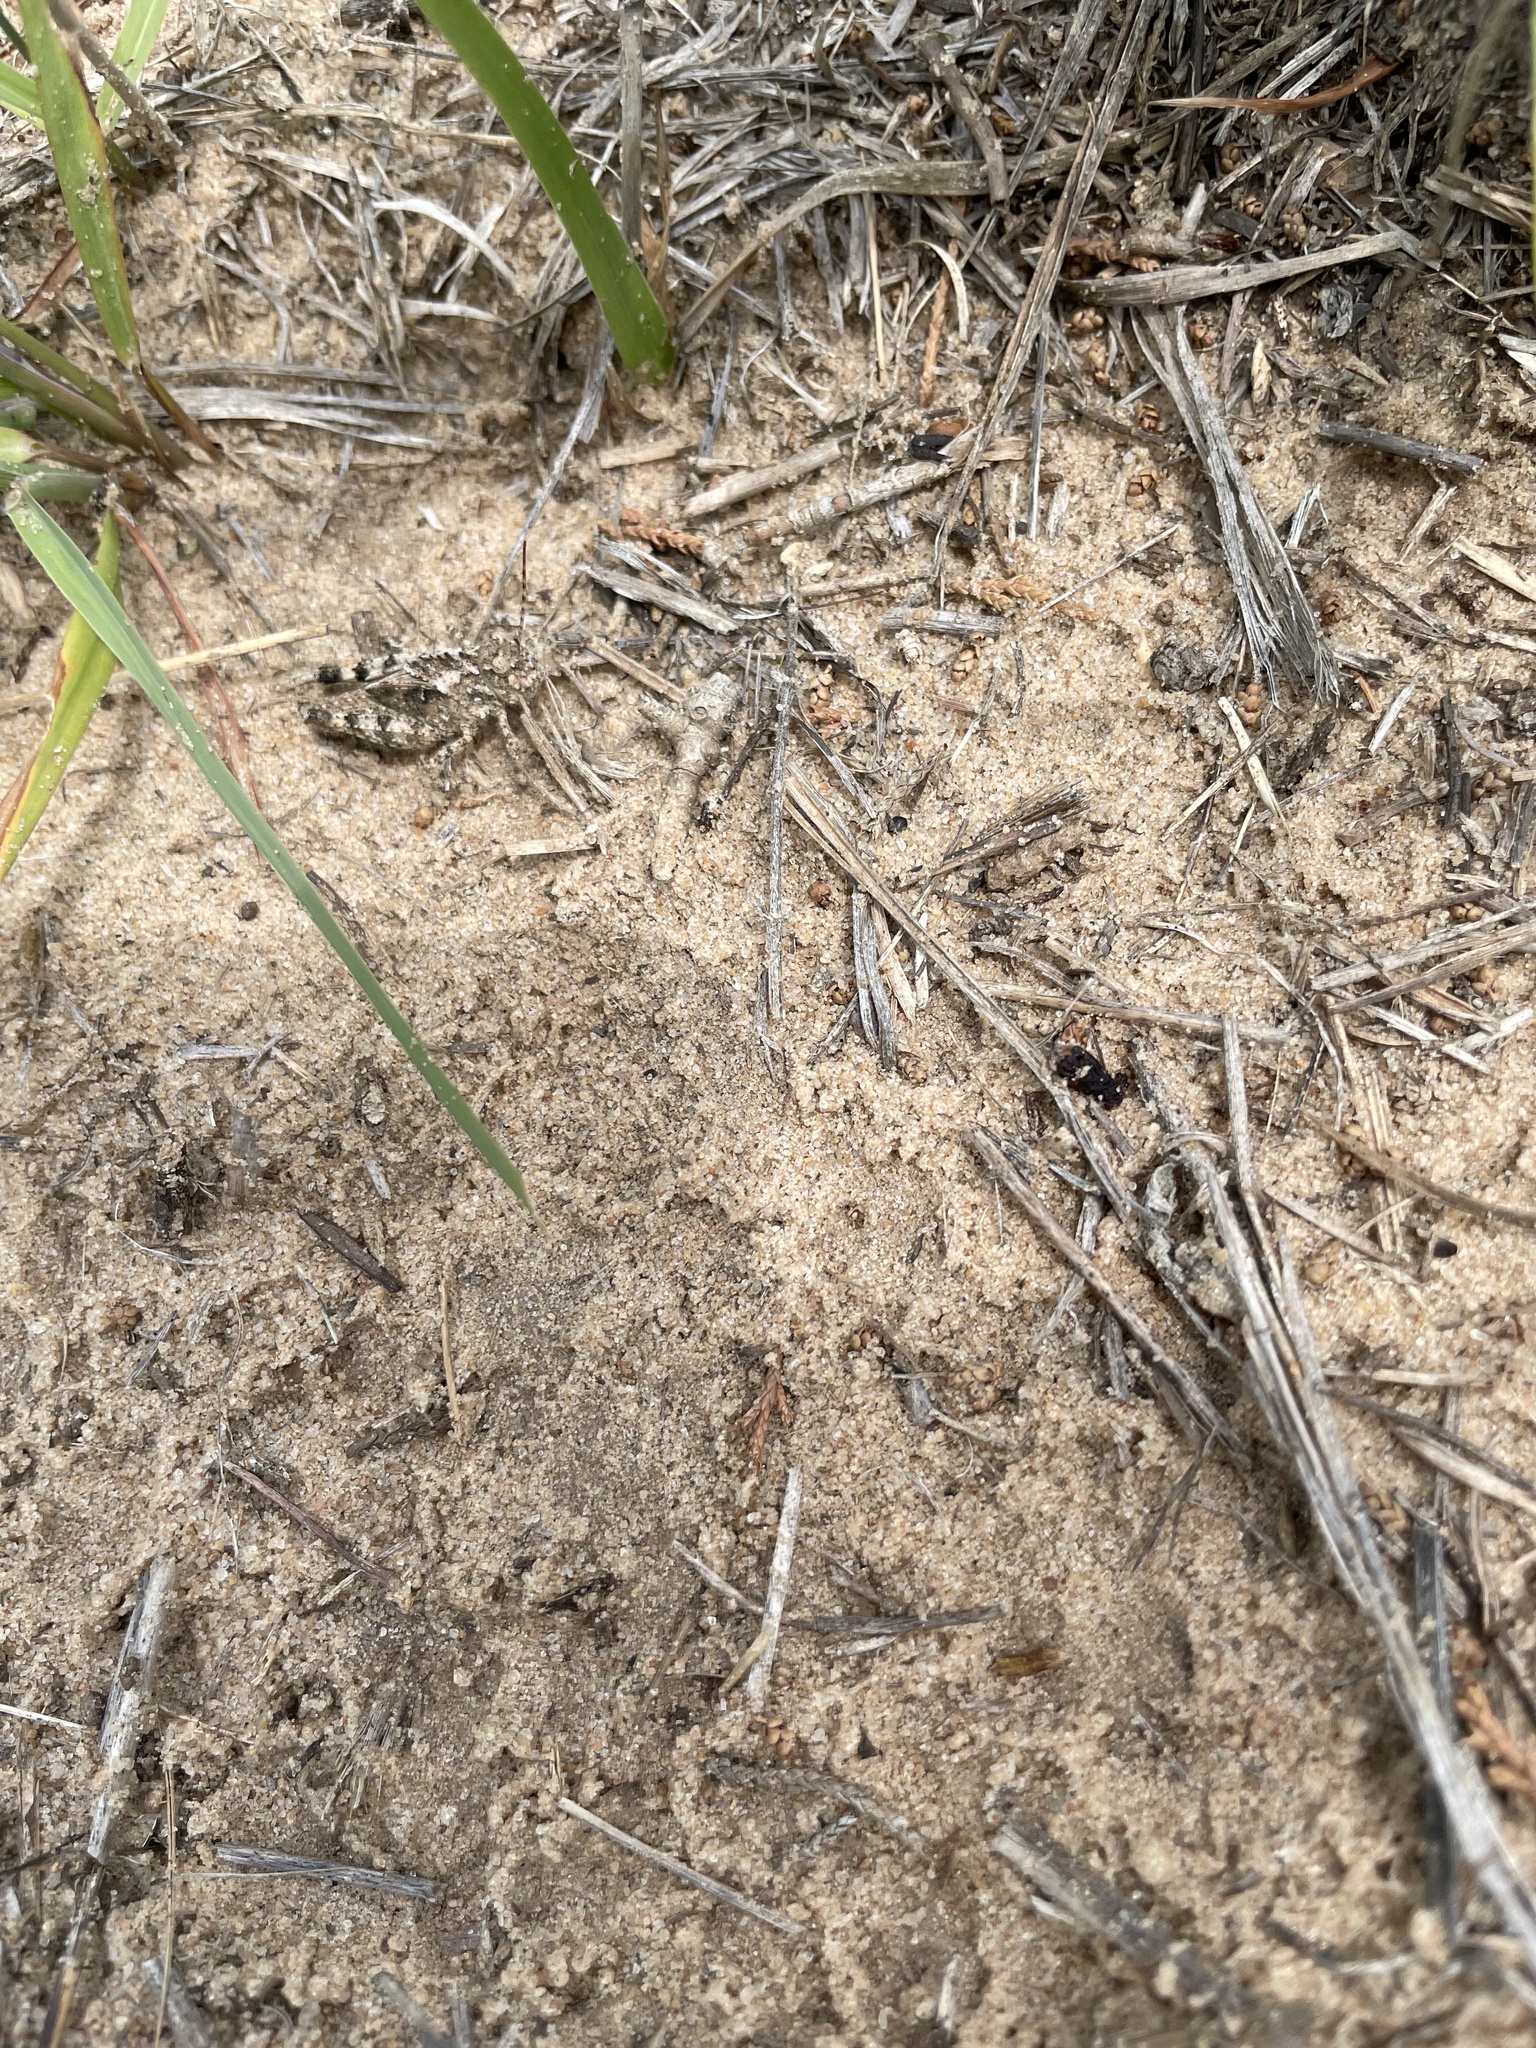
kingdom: Animalia
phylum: Arthropoda
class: Insecta
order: Orthoptera
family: Acrididae
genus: Spharagemon
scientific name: Spharagemon cristatum
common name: Ridgeback sand grasshopper
